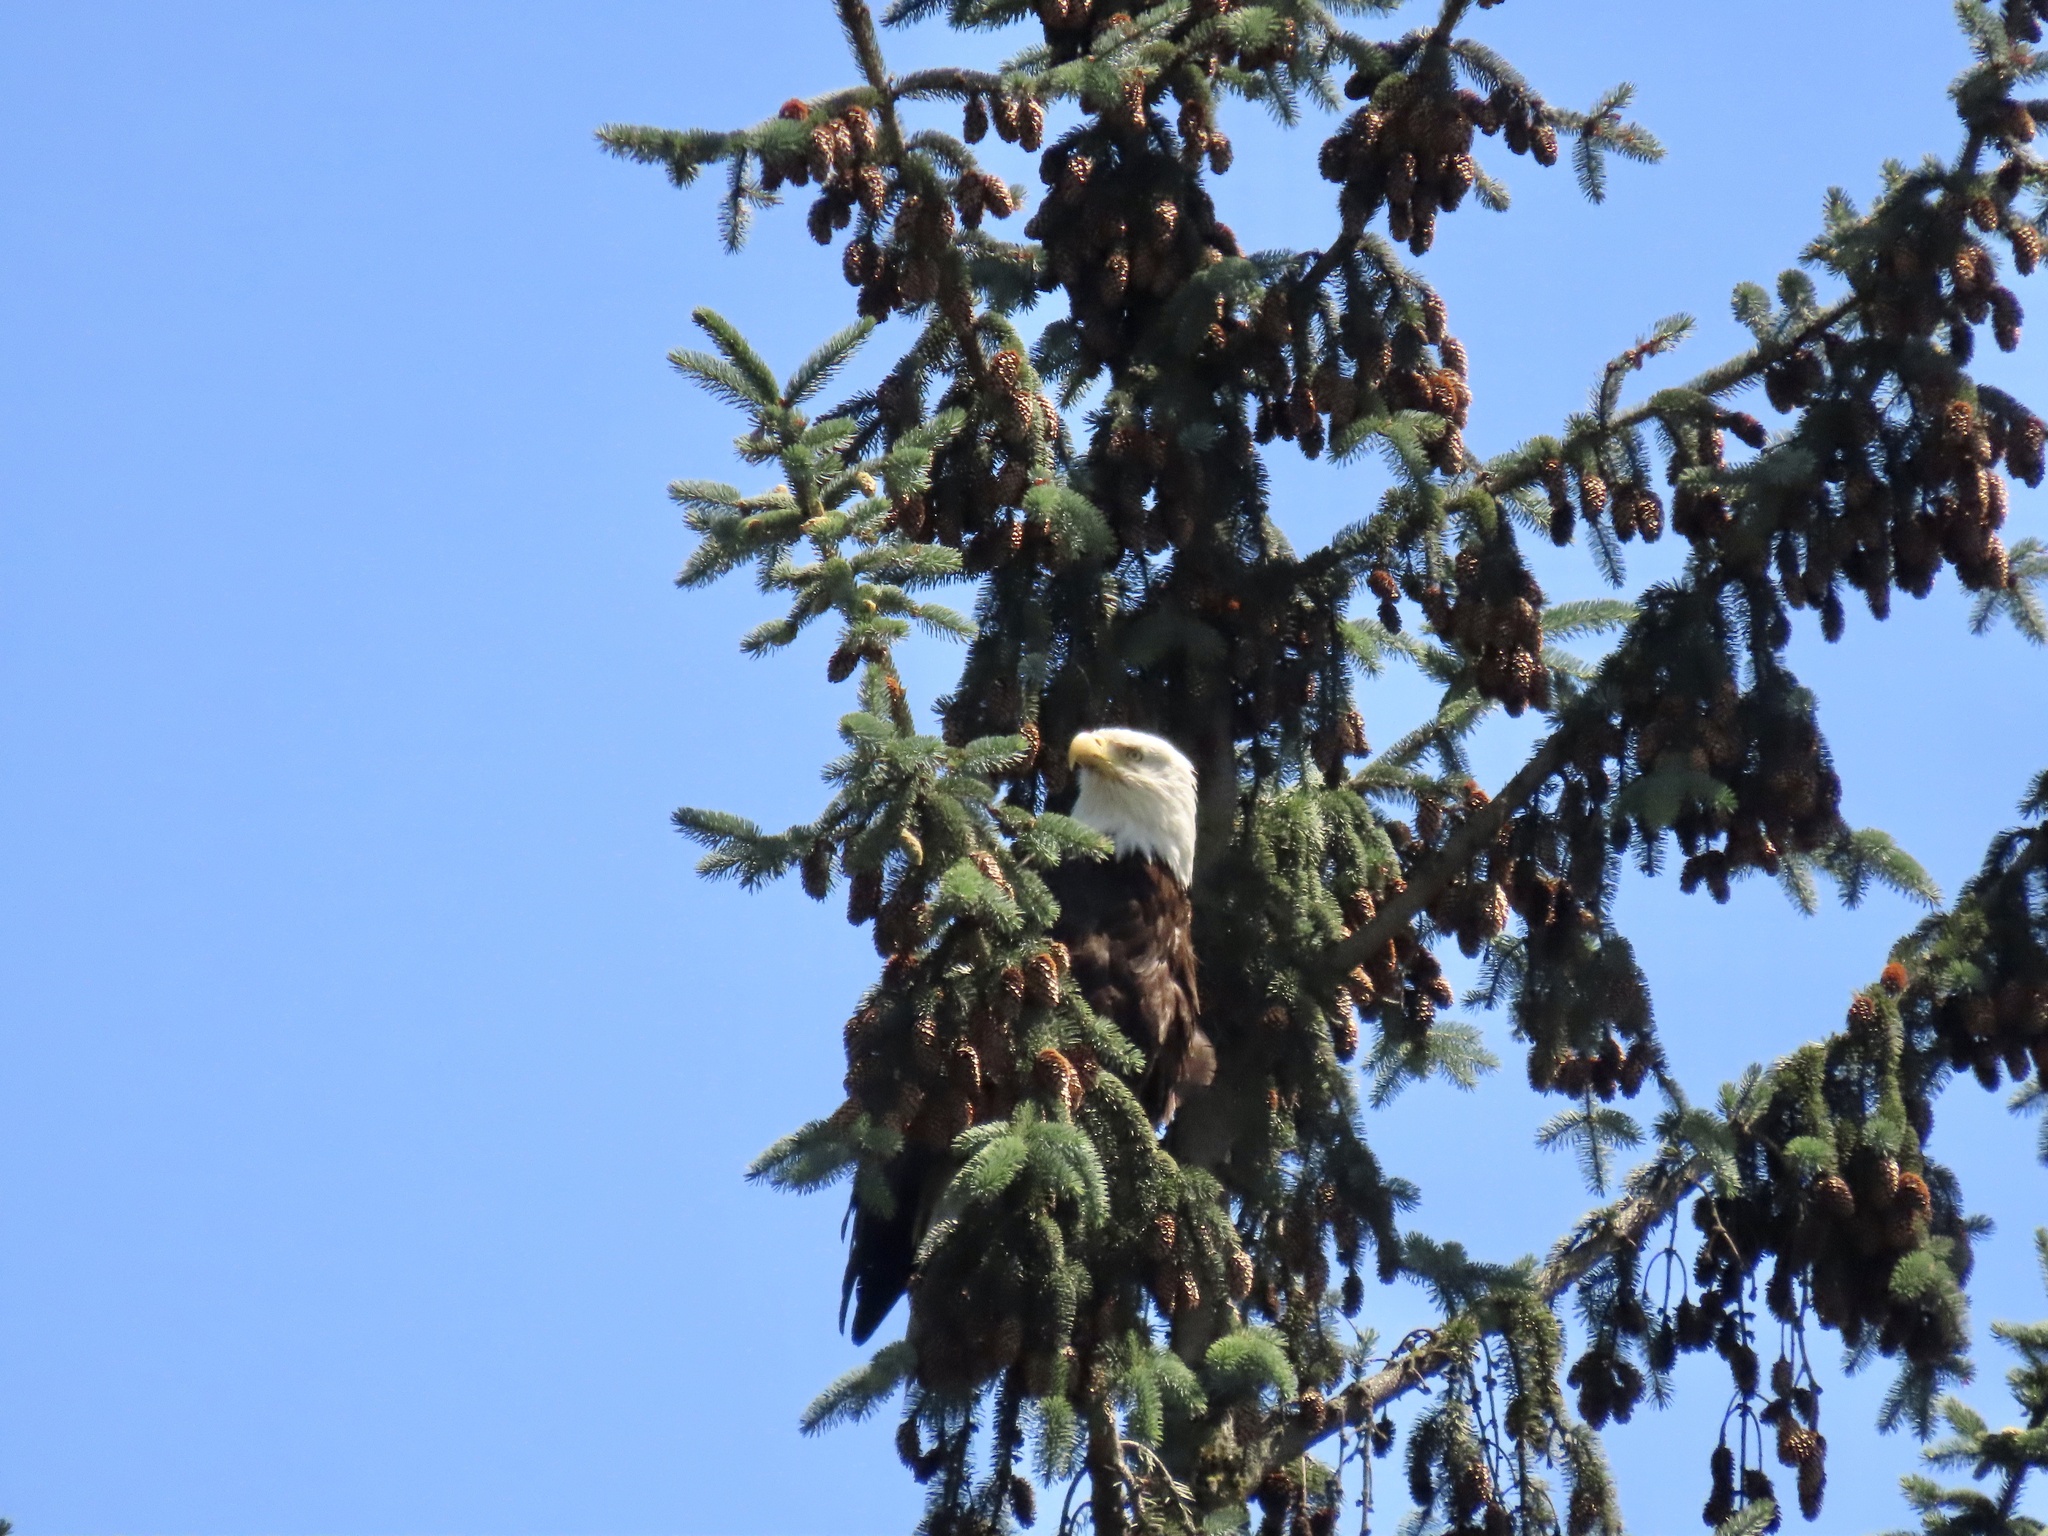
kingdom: Animalia
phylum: Chordata
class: Aves
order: Accipitriformes
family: Accipitridae
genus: Haliaeetus
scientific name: Haliaeetus leucocephalus
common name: Bald eagle
